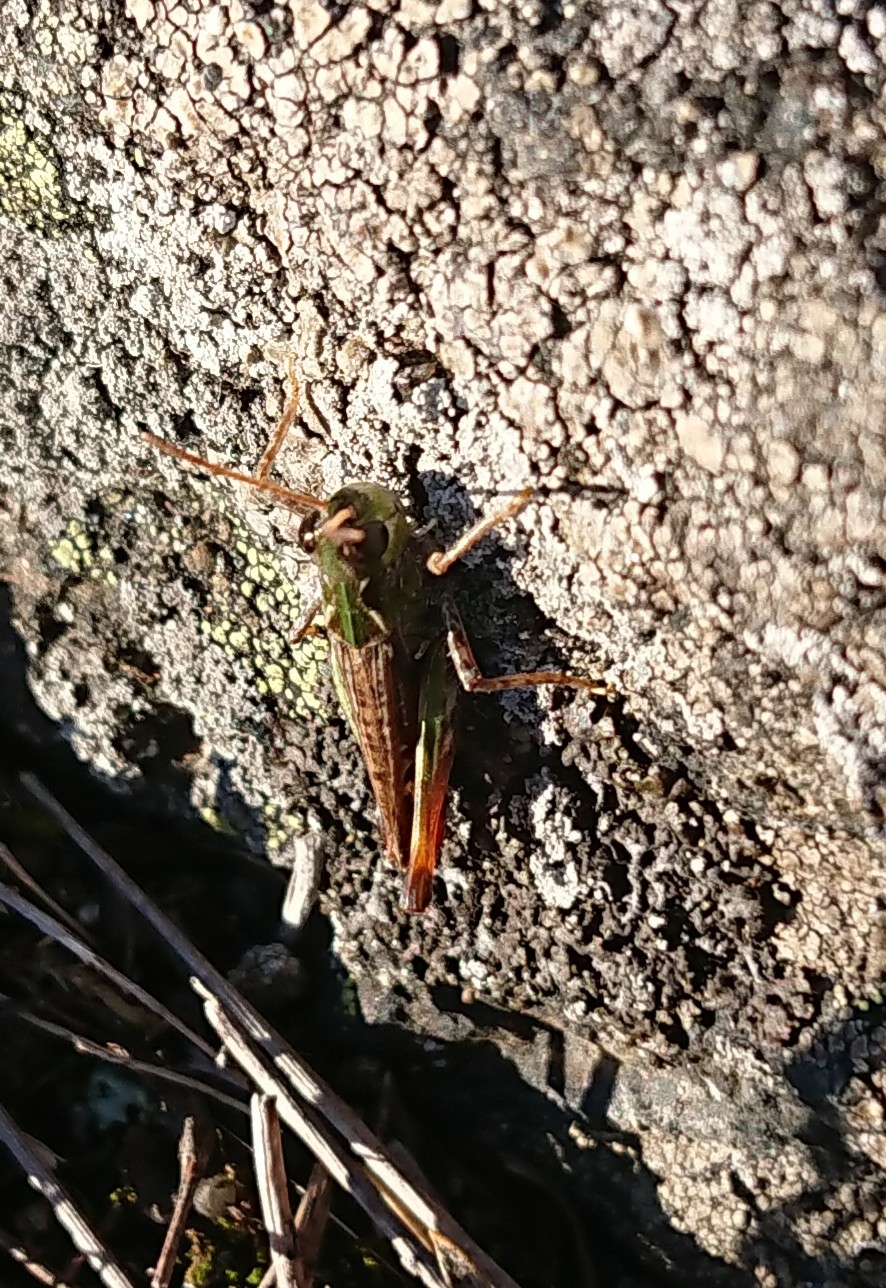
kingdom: Animalia
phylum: Arthropoda
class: Insecta
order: Orthoptera
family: Acrididae
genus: Myrmeleotettix
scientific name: Myrmeleotettix maculatus
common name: Mottled grasshopper
